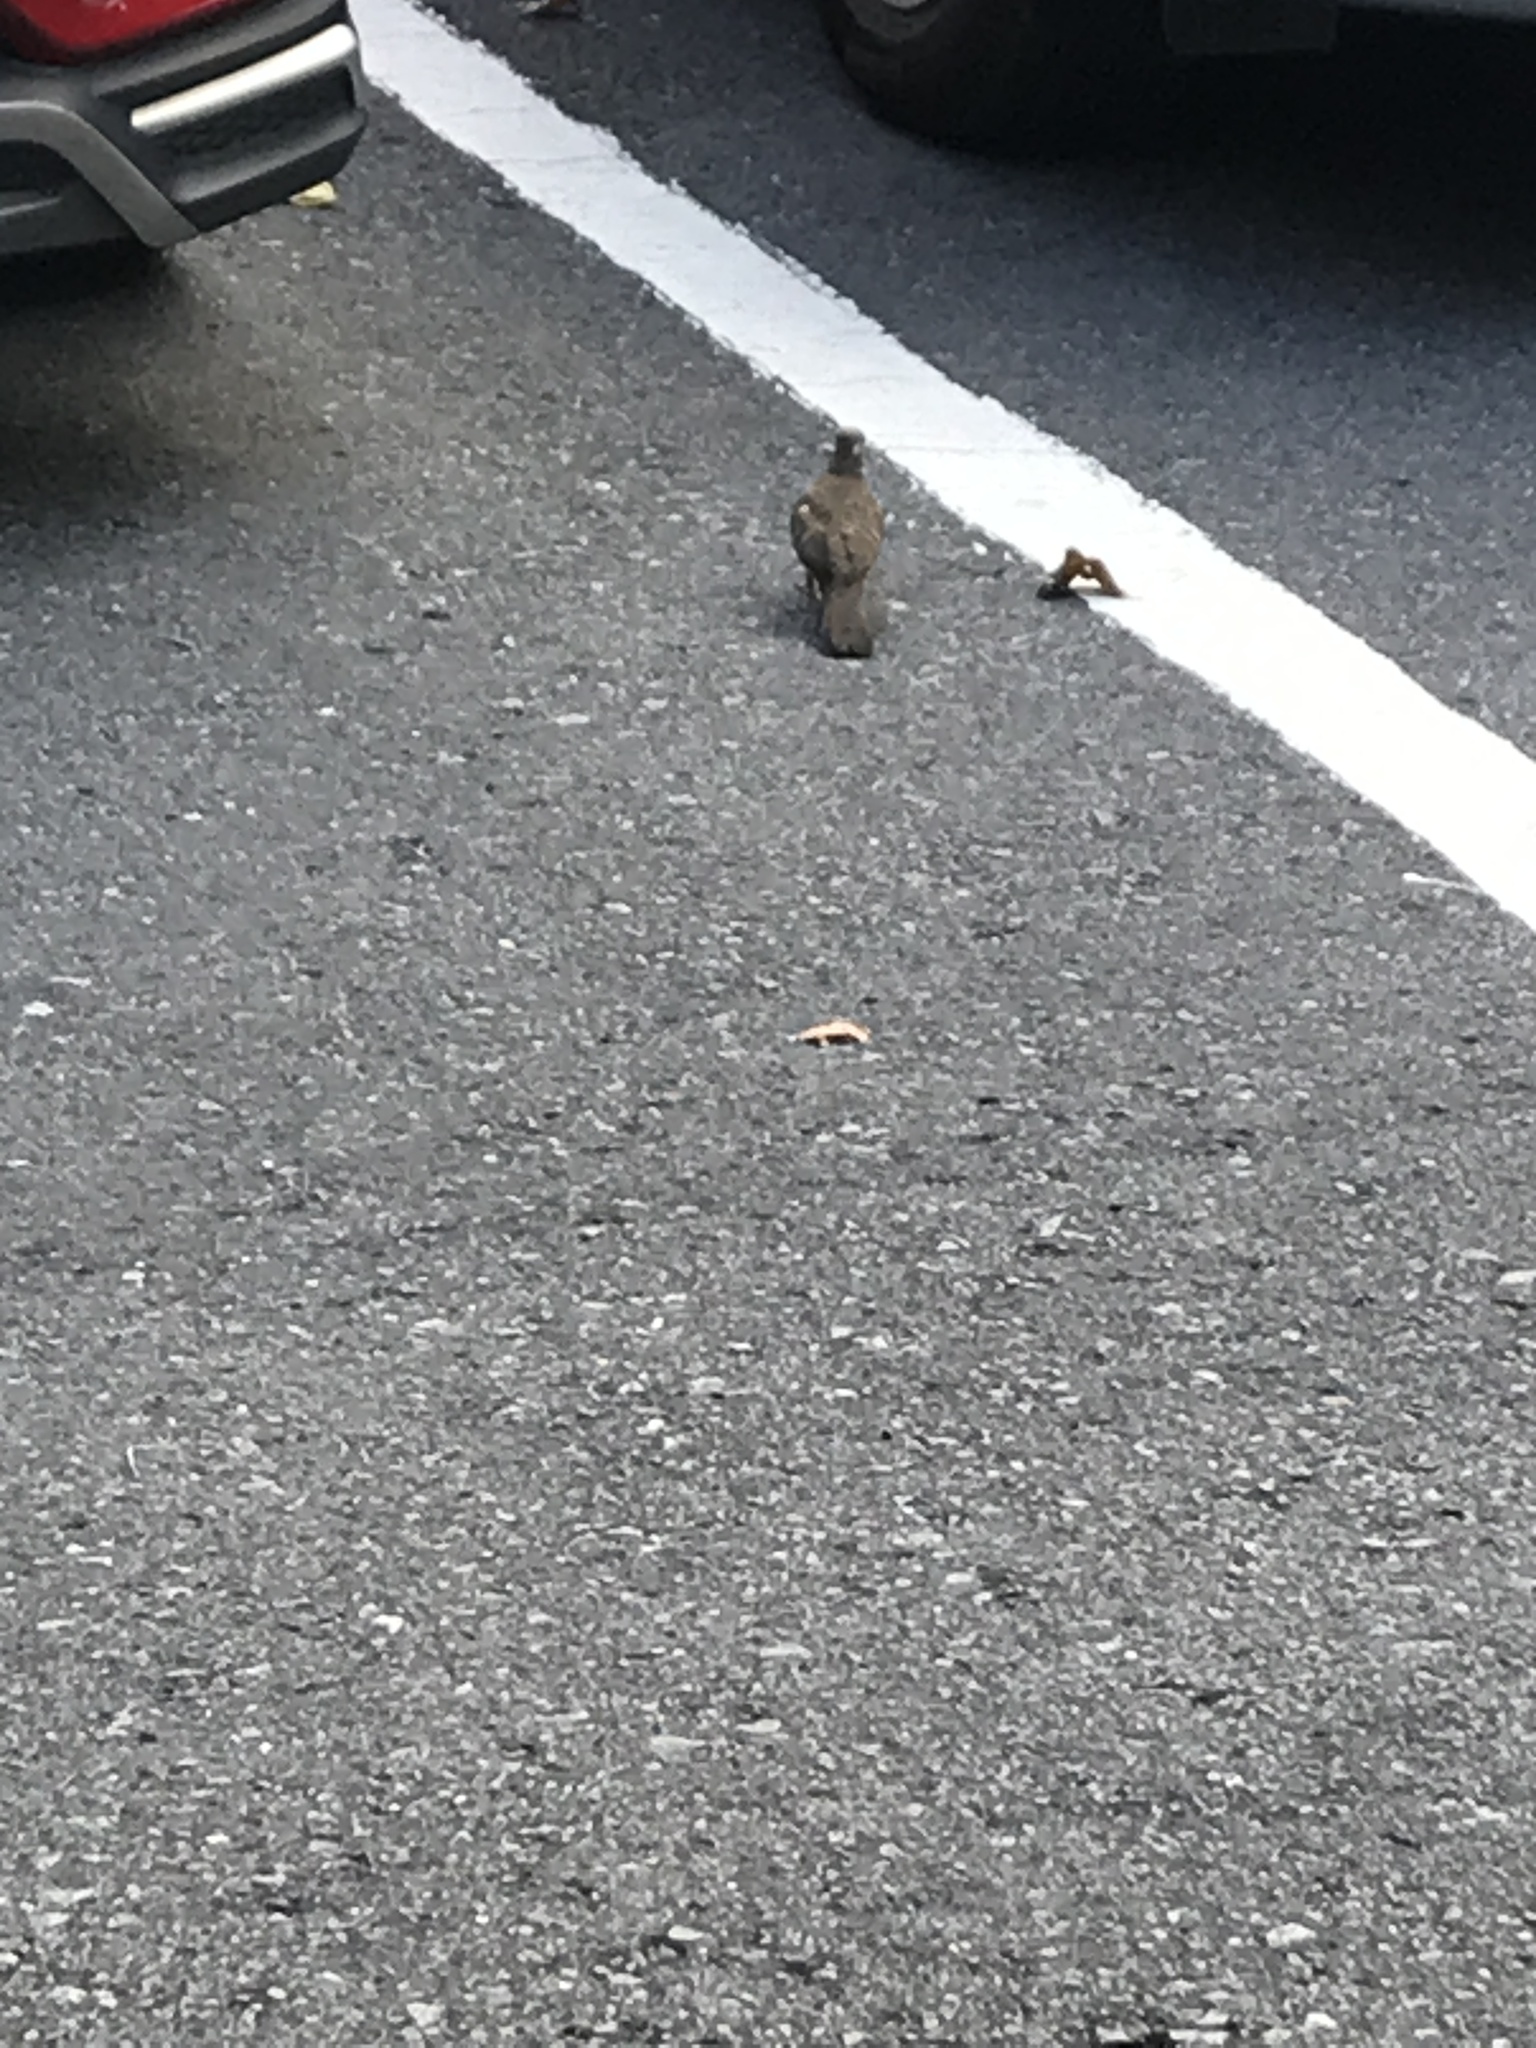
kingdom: Animalia
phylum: Chordata
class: Aves
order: Columbiformes
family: Columbidae
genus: Geopelia
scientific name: Geopelia striata
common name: Zebra dove
